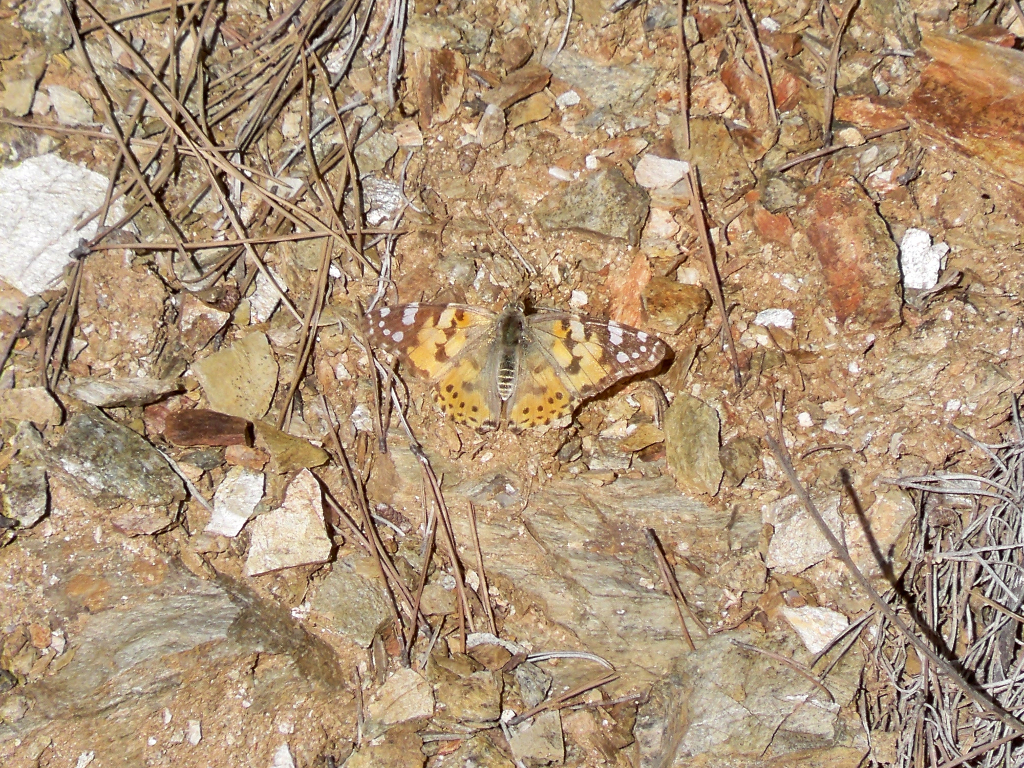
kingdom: Animalia
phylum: Arthropoda
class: Insecta
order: Lepidoptera
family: Nymphalidae
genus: Vanessa
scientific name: Vanessa cardui
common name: Painted lady
